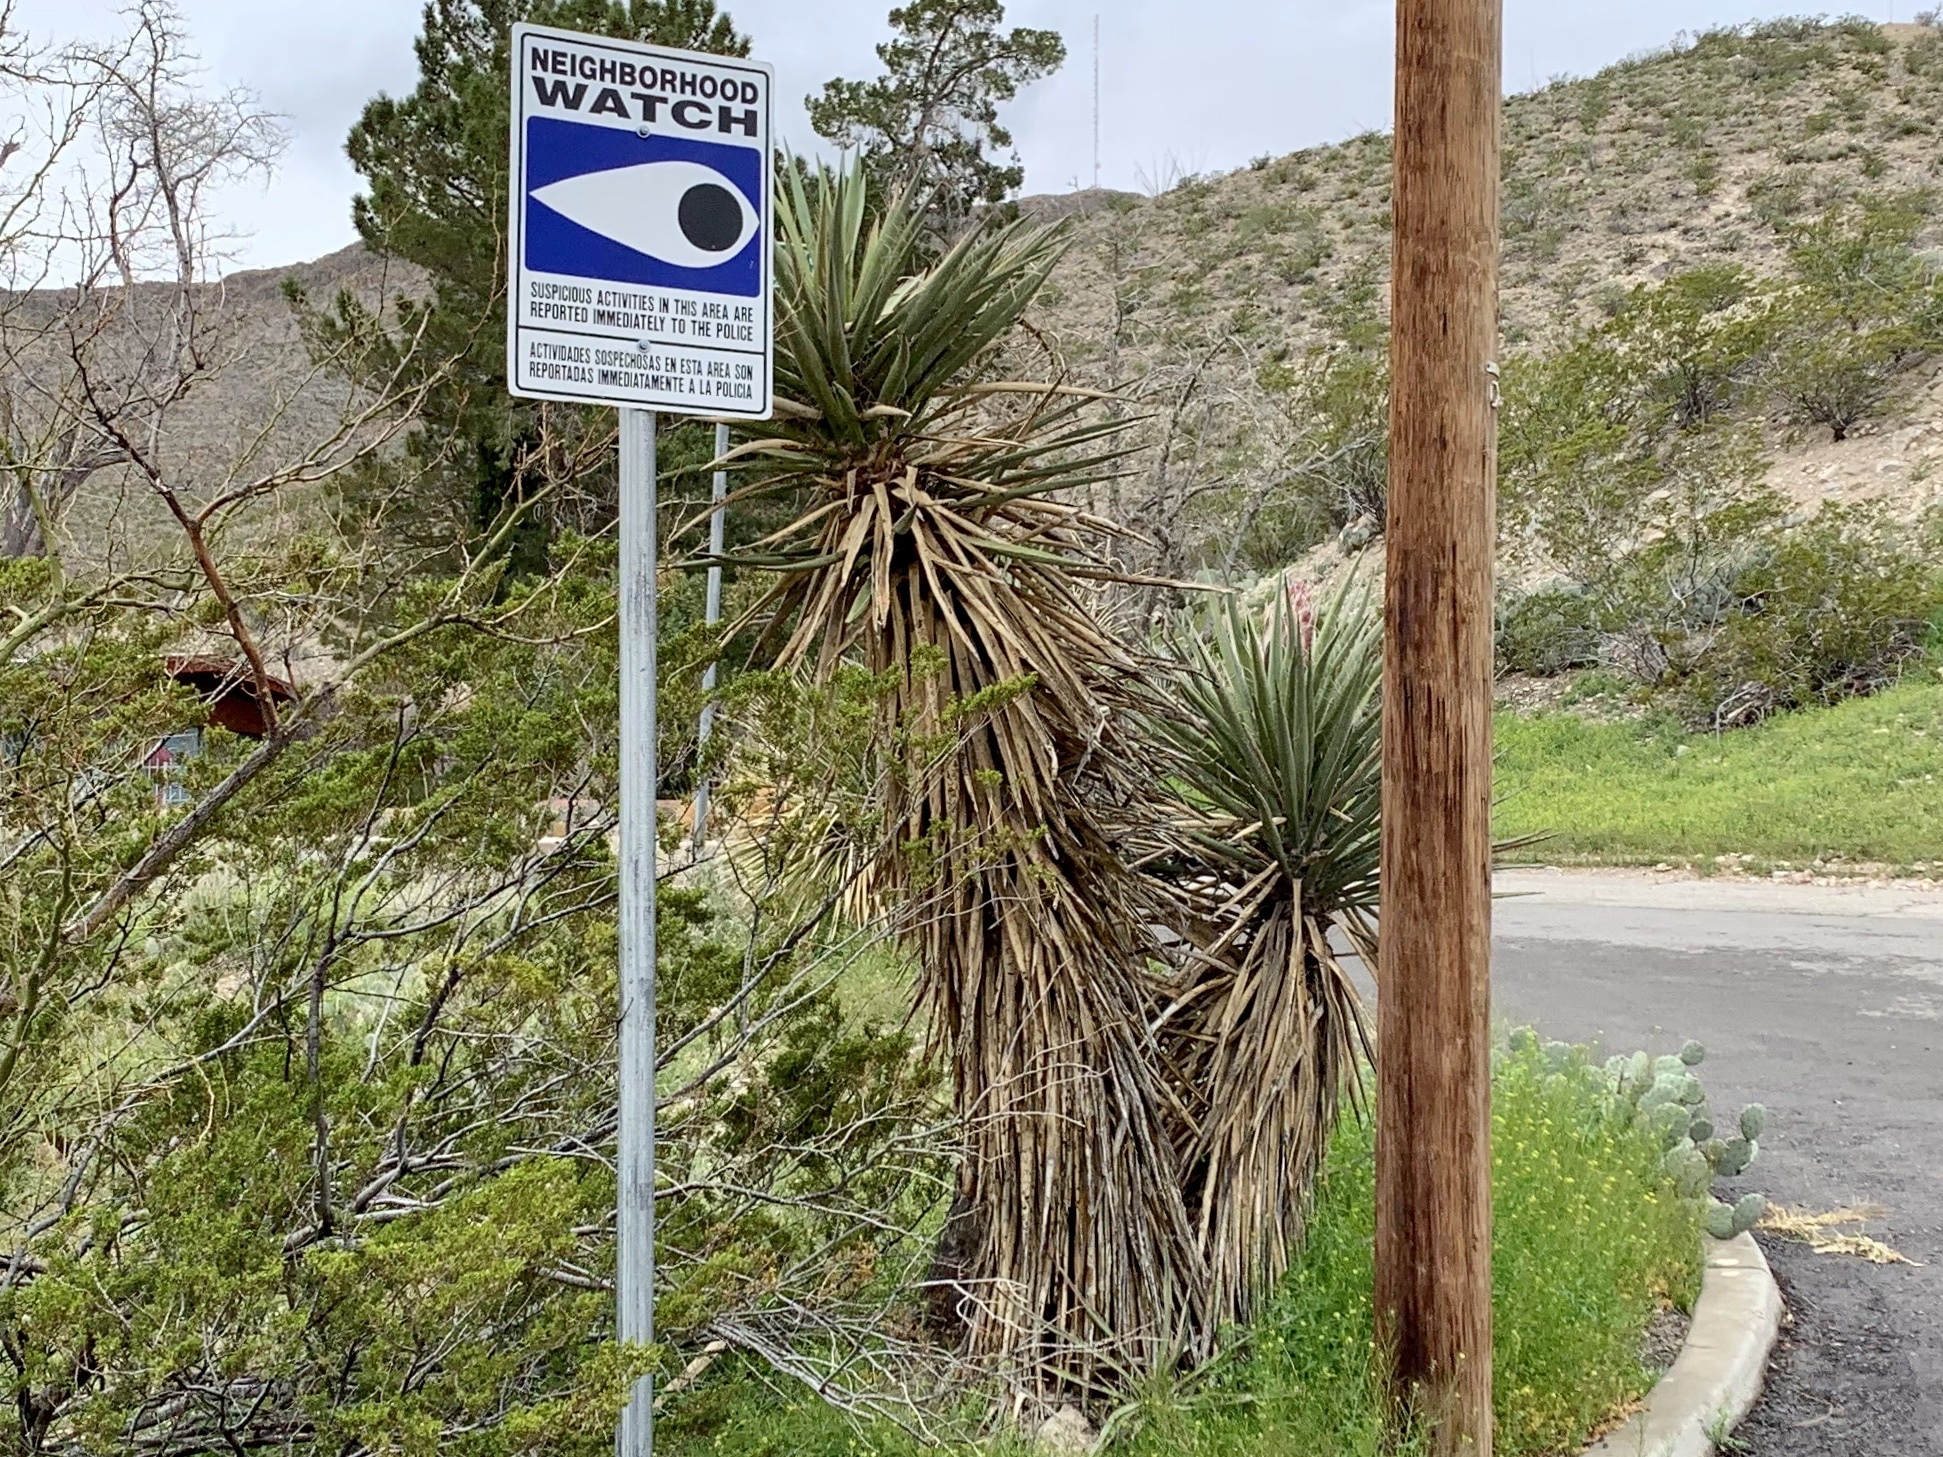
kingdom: Plantae
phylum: Tracheophyta
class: Liliopsida
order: Asparagales
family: Asparagaceae
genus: Yucca
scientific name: Yucca treculiana
